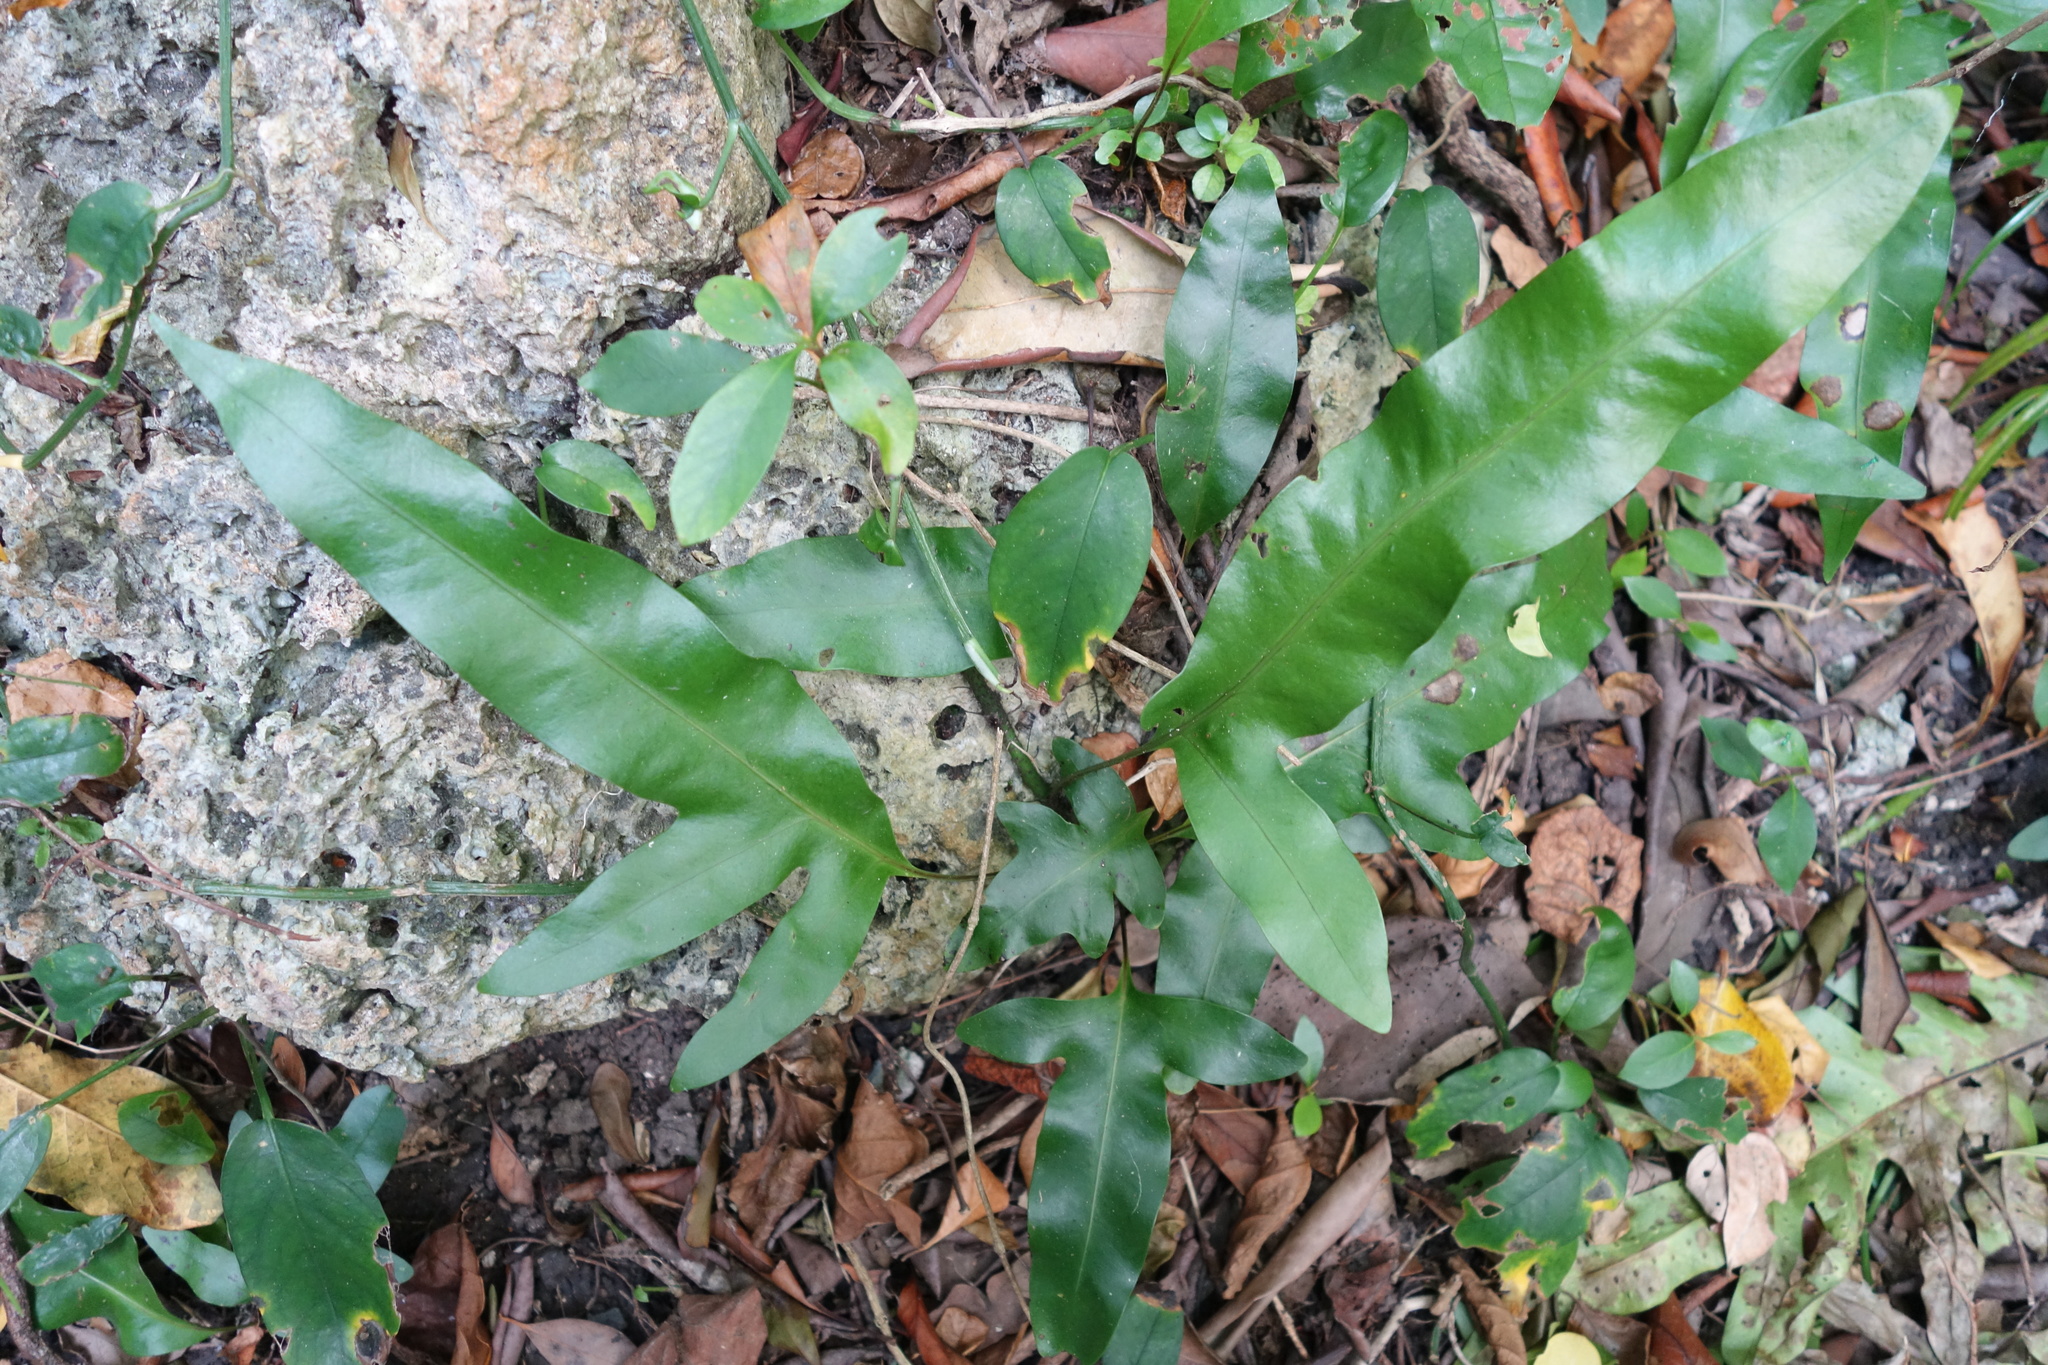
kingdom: Plantae
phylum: Tracheophyta
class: Polypodiopsida
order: Polypodiales
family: Polypodiaceae
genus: Microsorum
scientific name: Microsorum scolopendria
